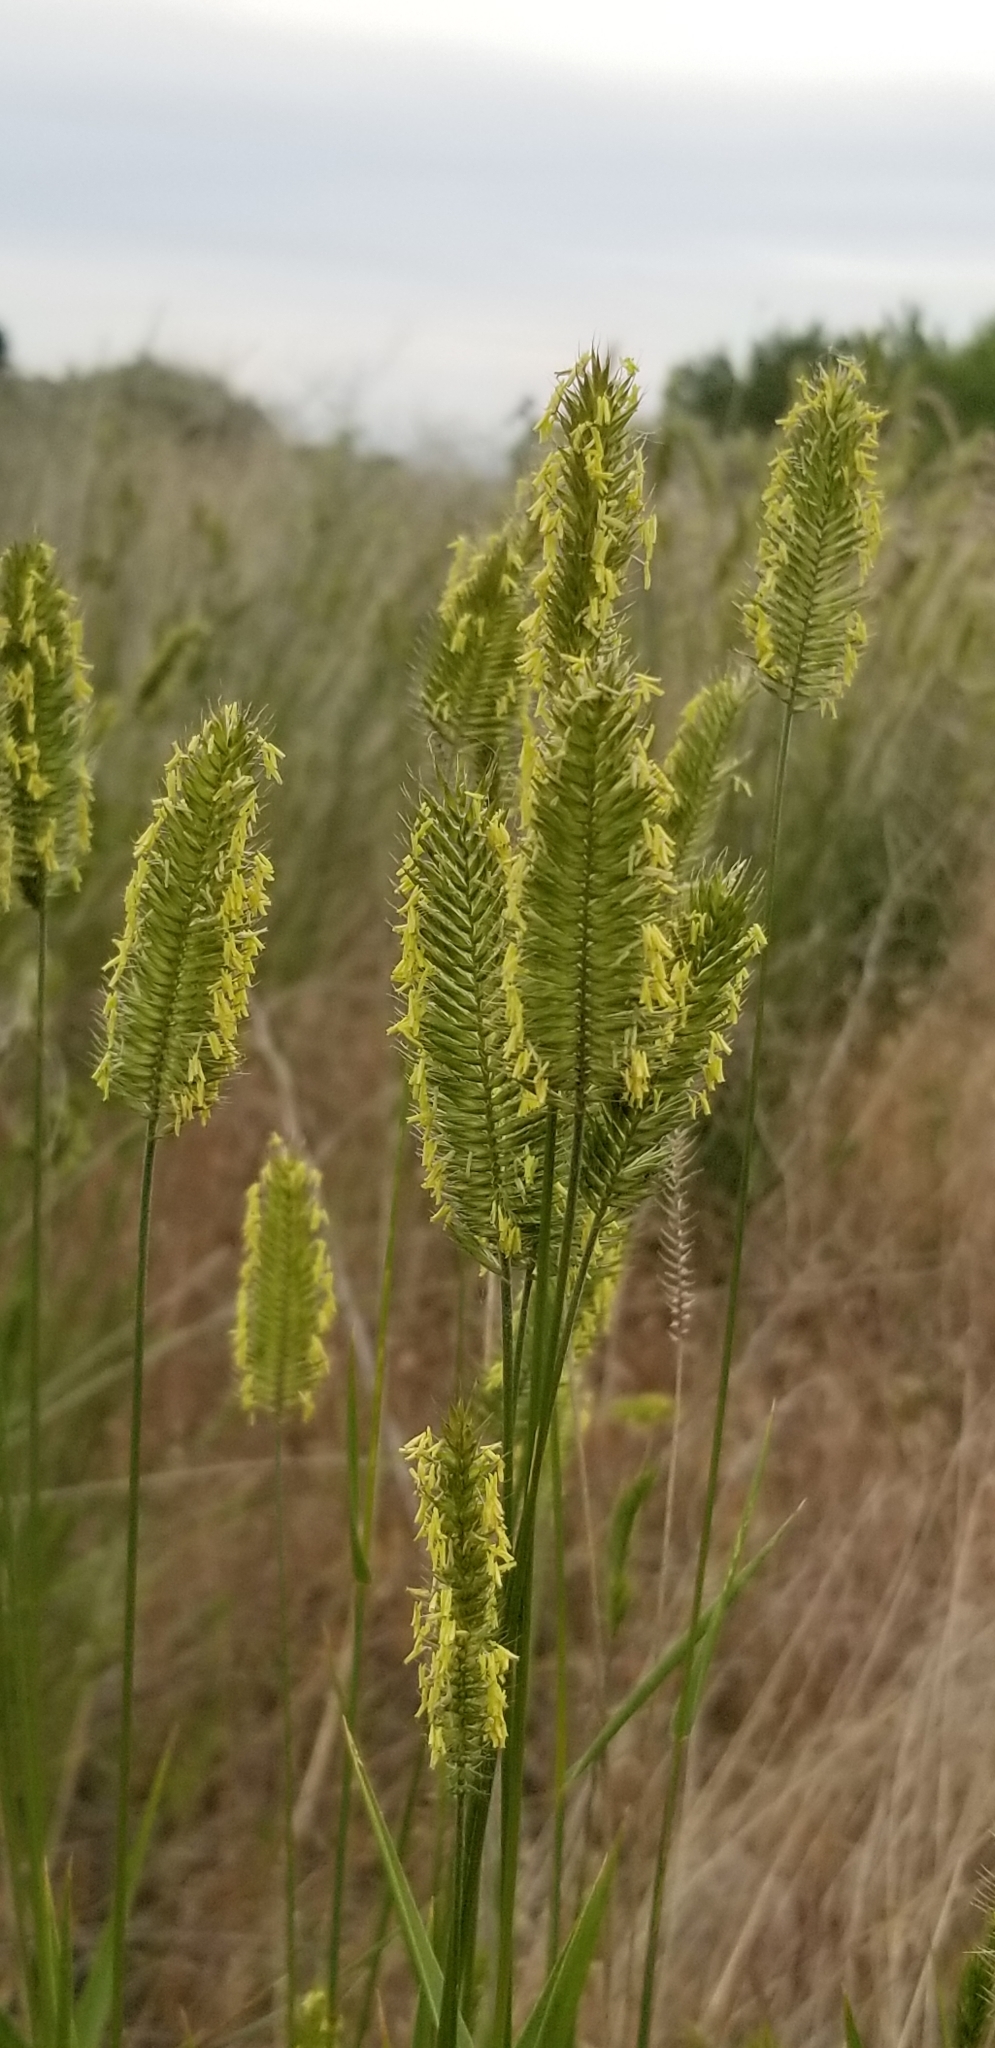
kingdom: Plantae
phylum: Tracheophyta
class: Liliopsida
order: Poales
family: Poaceae
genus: Agropyron
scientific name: Agropyron cristatum
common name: Crested wheatgrass
